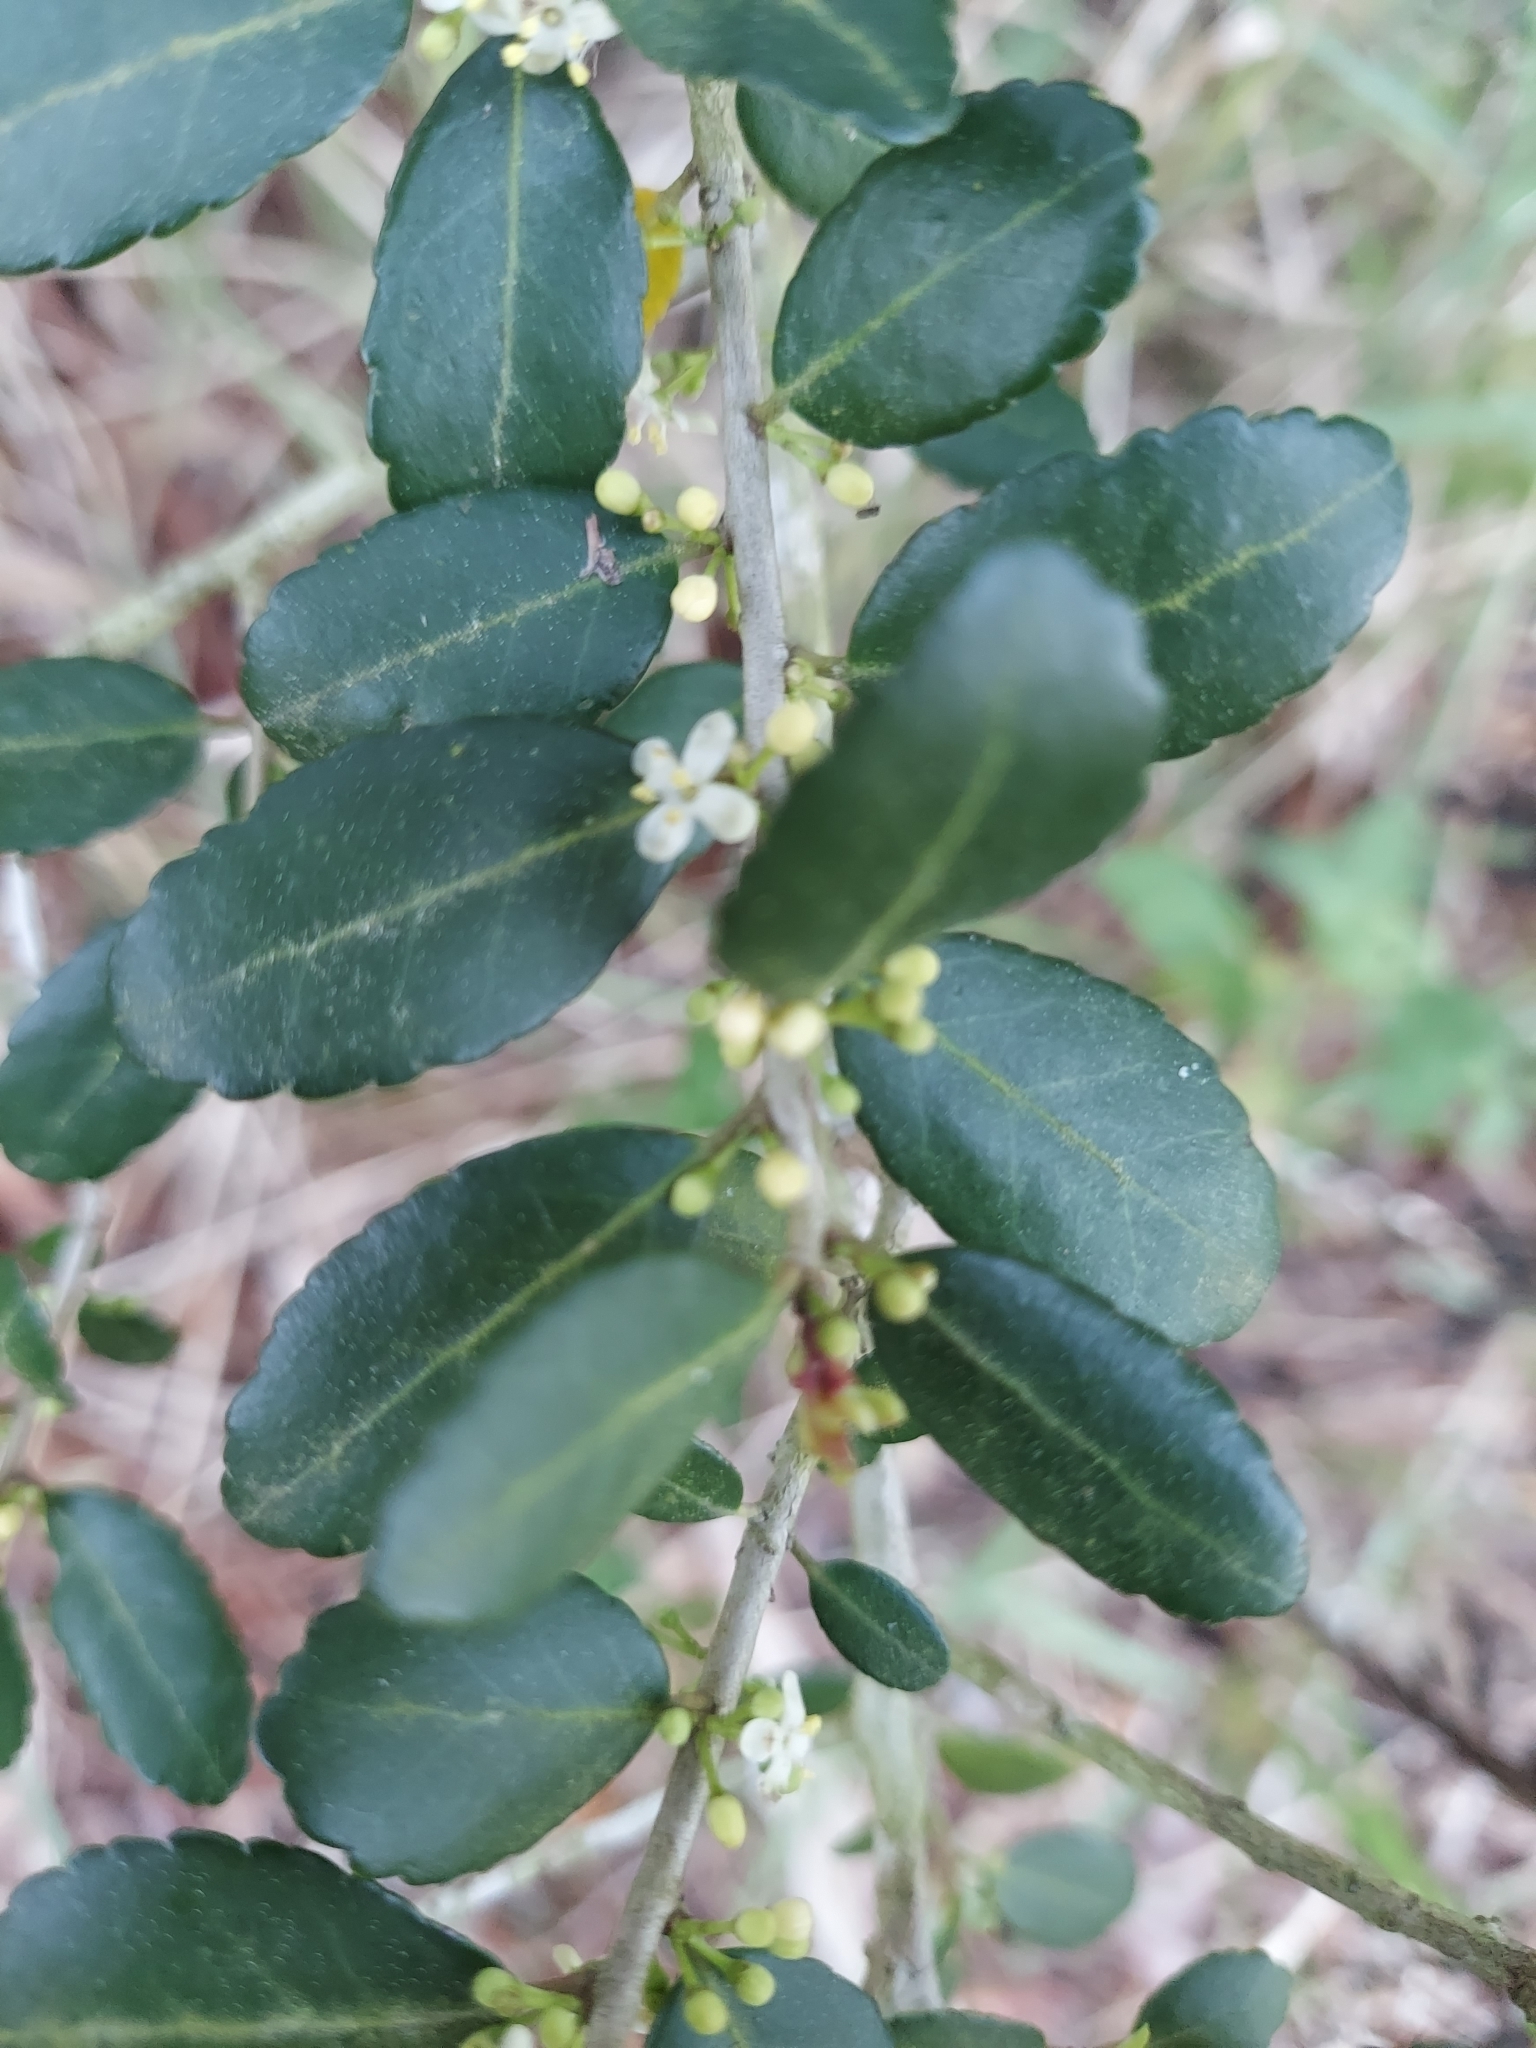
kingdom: Plantae
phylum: Tracheophyta
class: Magnoliopsida
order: Aquifoliales
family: Aquifoliaceae
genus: Ilex
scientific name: Ilex vomitoria
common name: Yaupon holly
